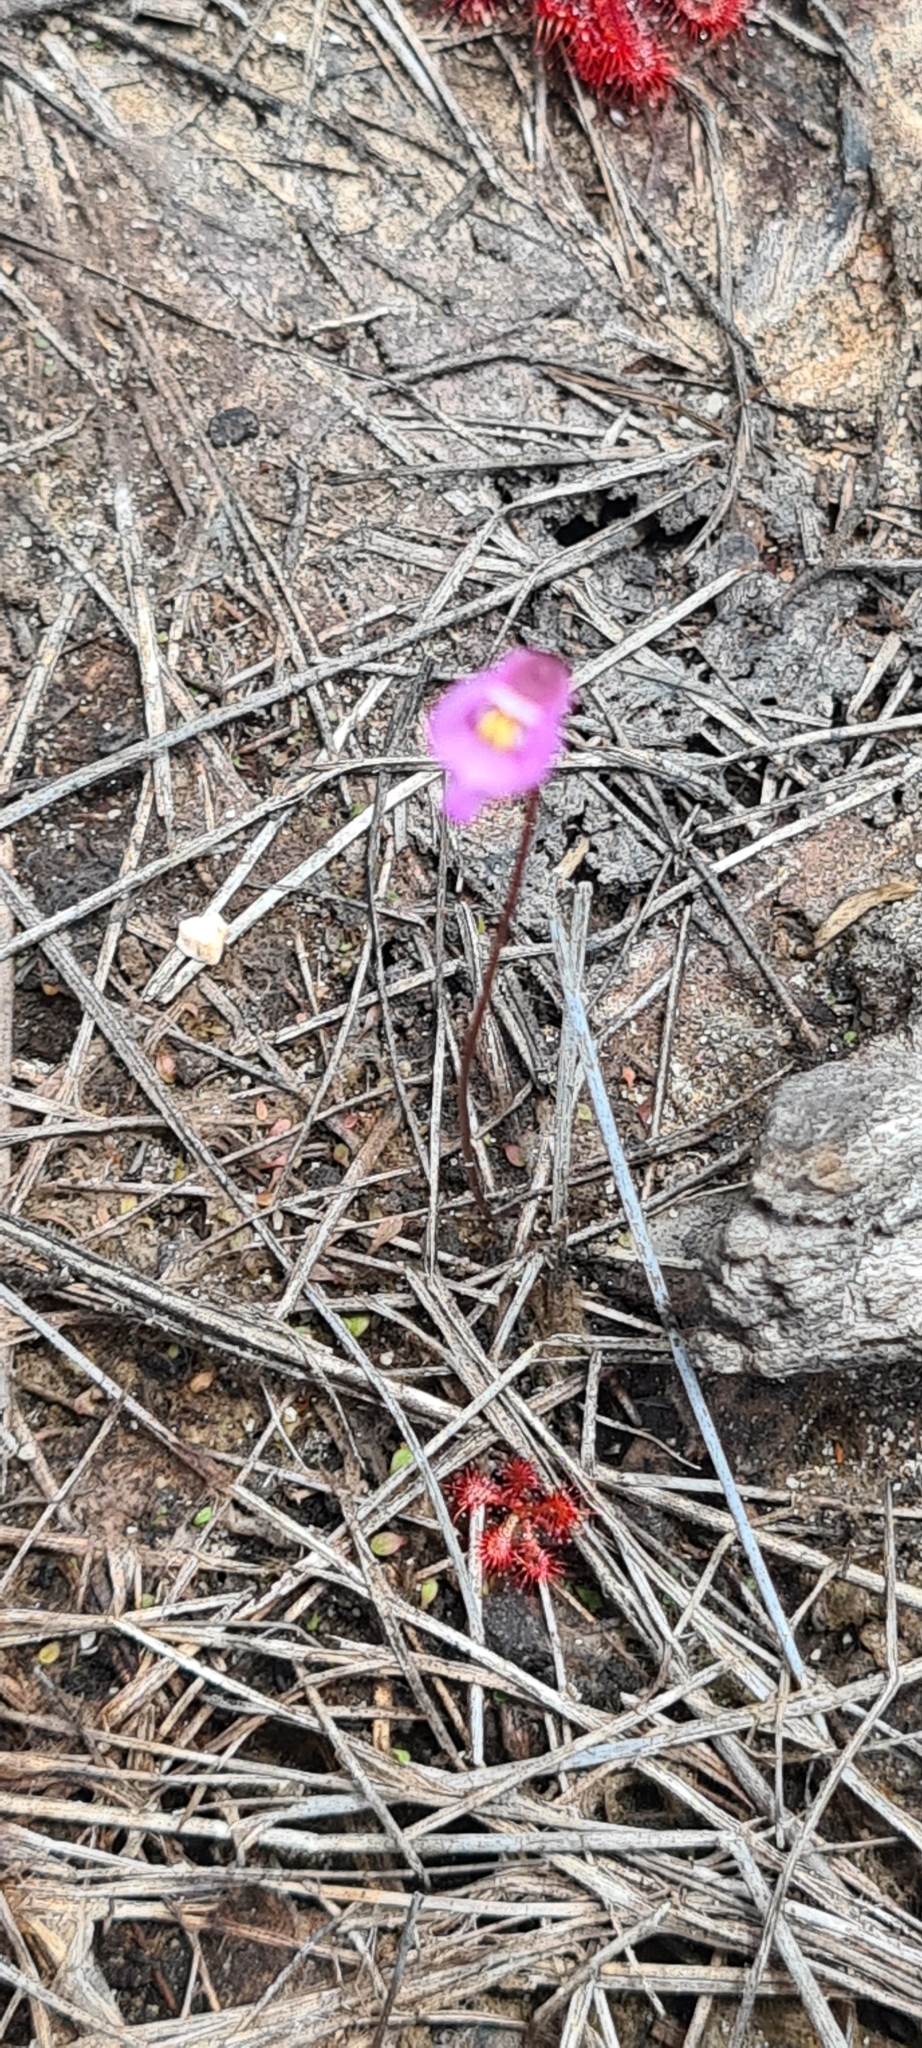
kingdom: Plantae
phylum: Tracheophyta
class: Magnoliopsida
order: Lamiales
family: Lentibulariaceae
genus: Utricularia
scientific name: Utricularia uniflora
